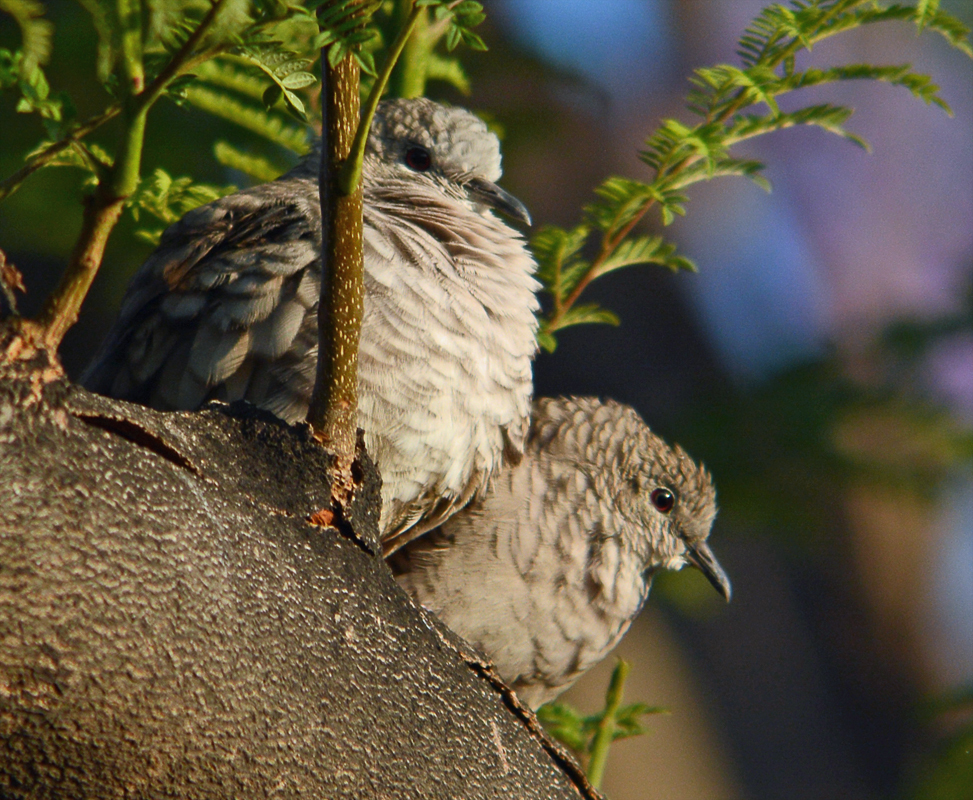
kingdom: Animalia
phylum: Chordata
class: Aves
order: Columbiformes
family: Columbidae
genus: Columbina
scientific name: Columbina inca
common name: Inca dove
